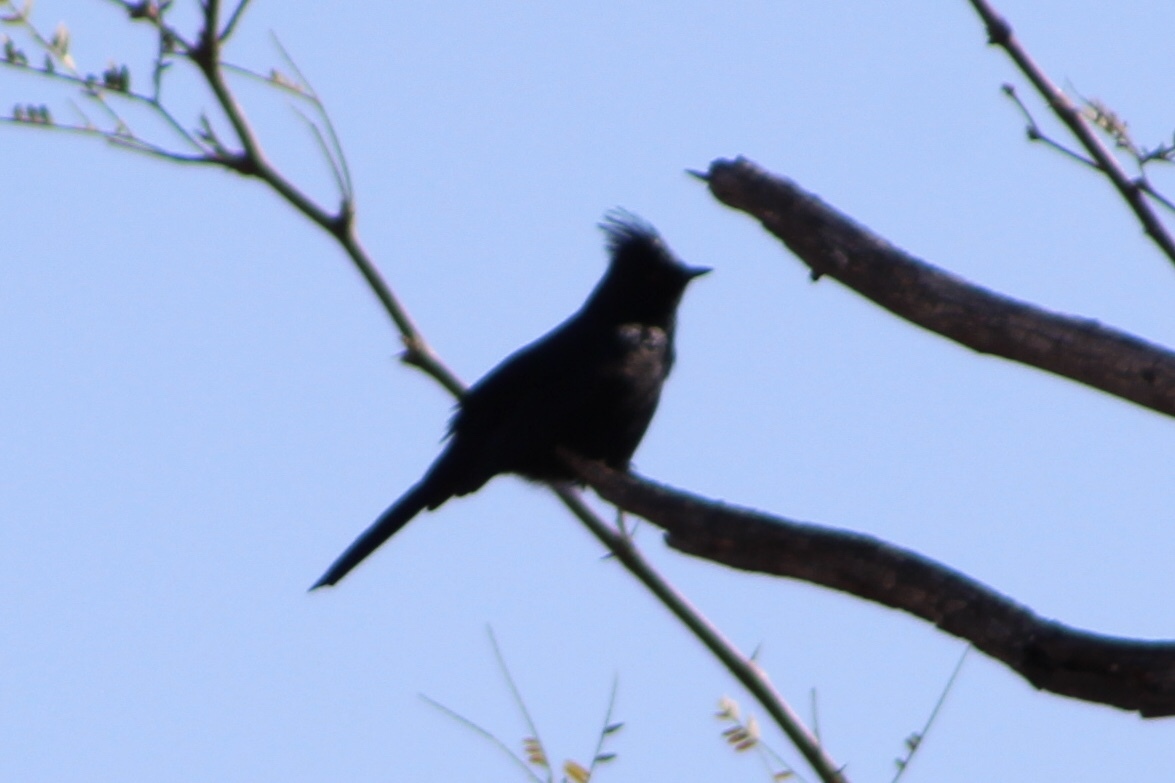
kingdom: Animalia
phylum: Chordata
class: Aves
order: Passeriformes
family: Ptilogonatidae
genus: Phainopepla
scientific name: Phainopepla nitens
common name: Phainopepla
